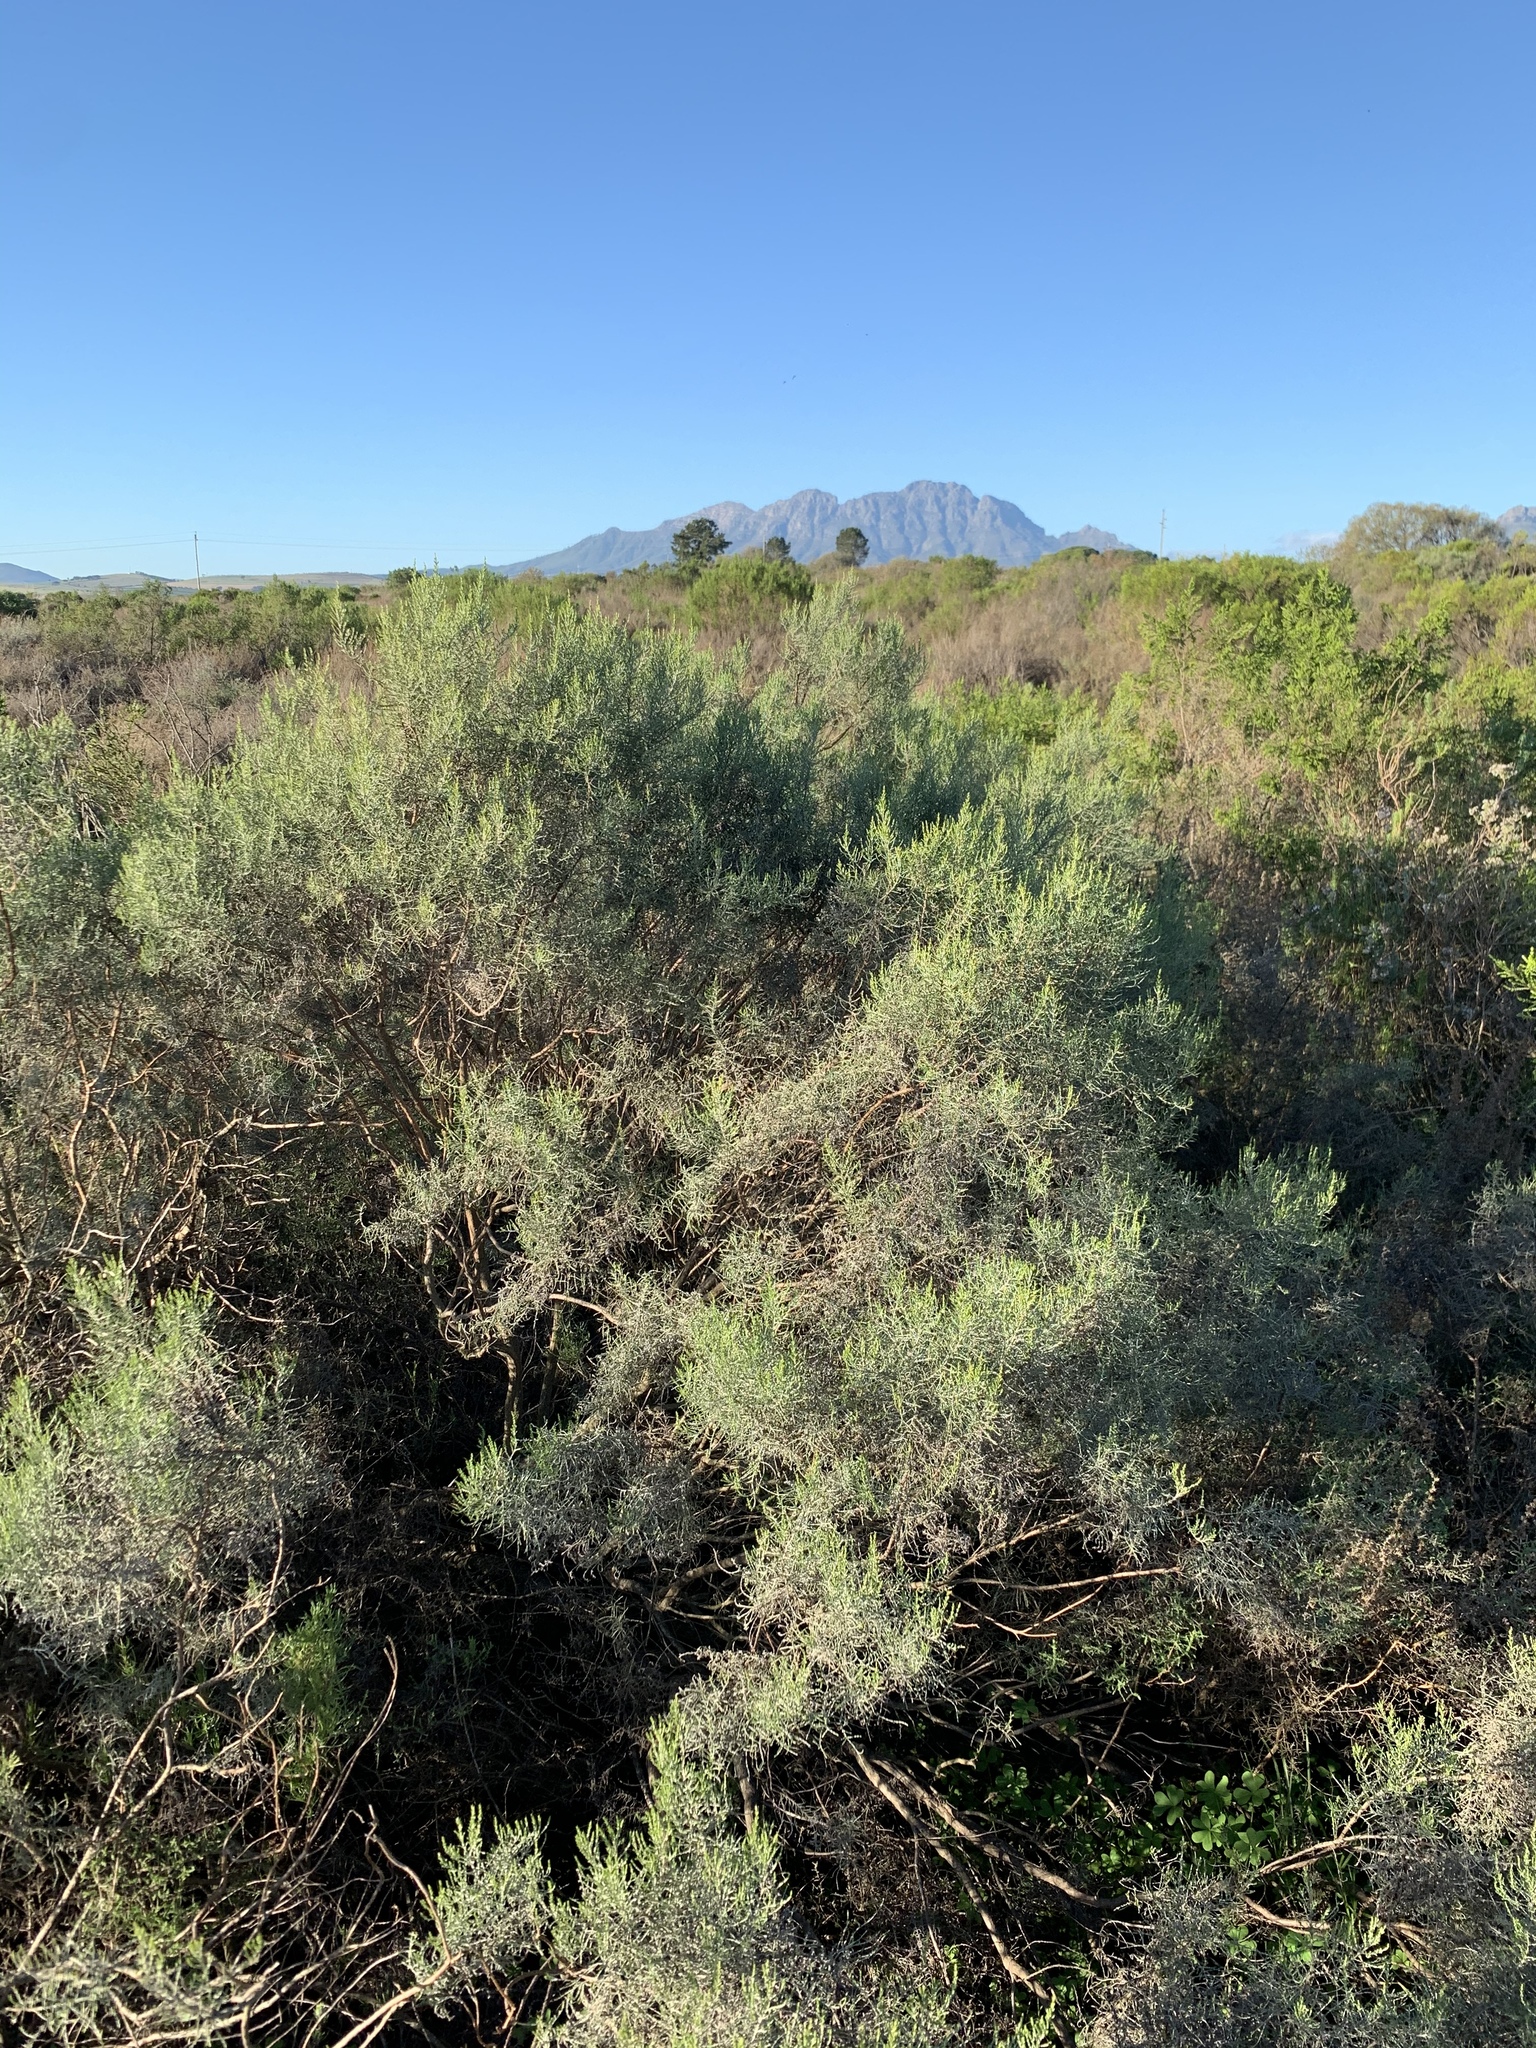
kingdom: Plantae
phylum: Tracheophyta
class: Magnoliopsida
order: Asterales
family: Asteraceae
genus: Dicerothamnus
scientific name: Dicerothamnus rhinocerotis
